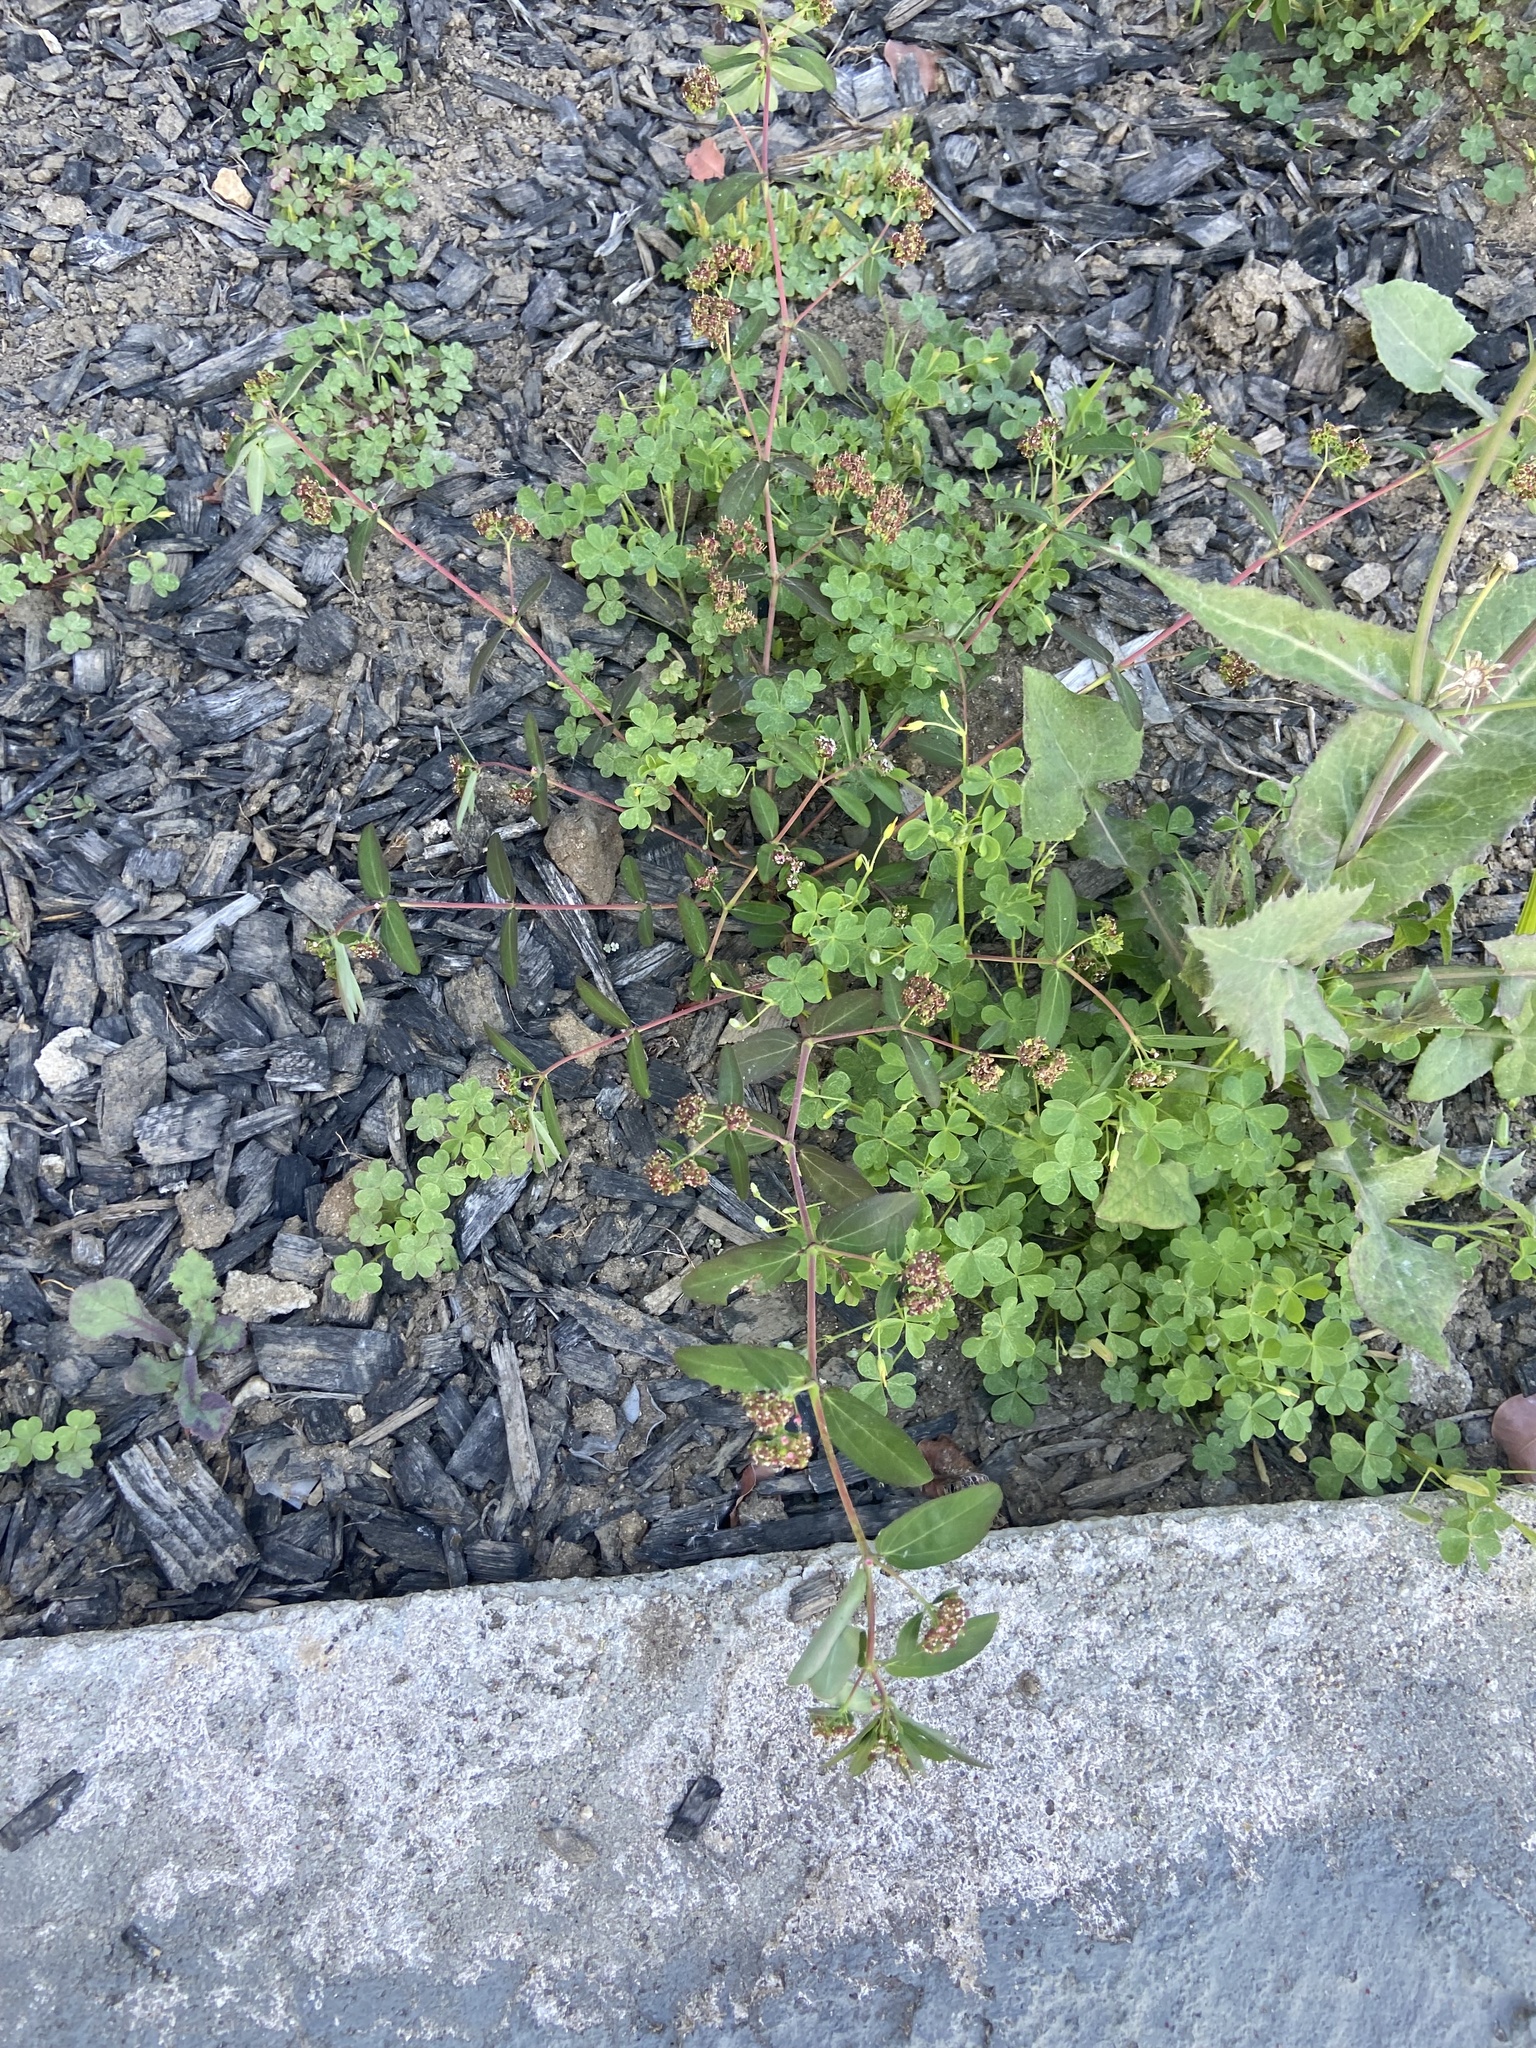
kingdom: Plantae
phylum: Tracheophyta
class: Magnoliopsida
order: Malpighiales
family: Euphorbiaceae
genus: Euphorbia
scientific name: Euphorbia hypericifolia
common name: Graceful sandmat
